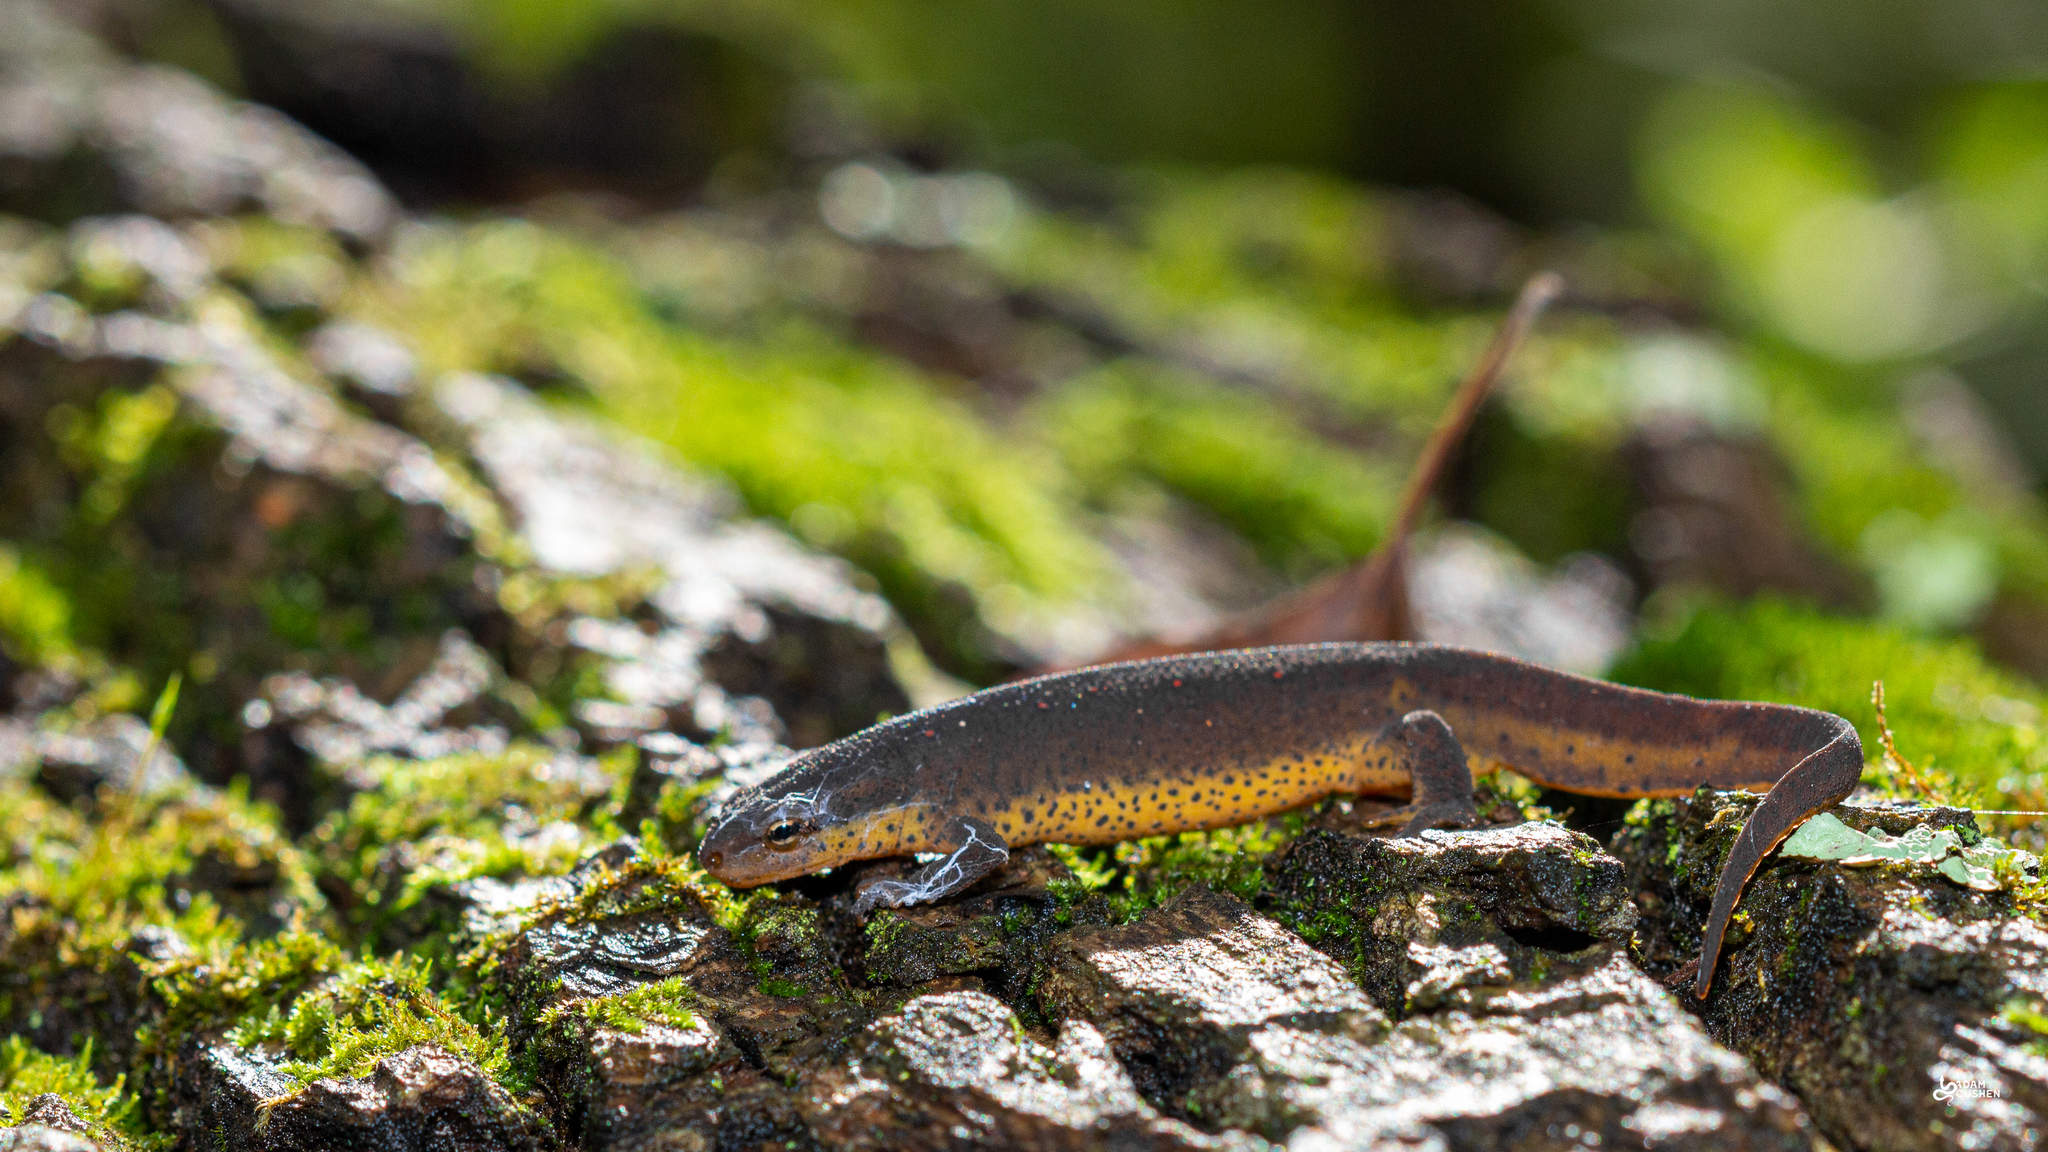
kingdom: Animalia
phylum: Chordata
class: Amphibia
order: Caudata
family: Salamandridae
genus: Notophthalmus
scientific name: Notophthalmus viridescens
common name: Eastern newt
